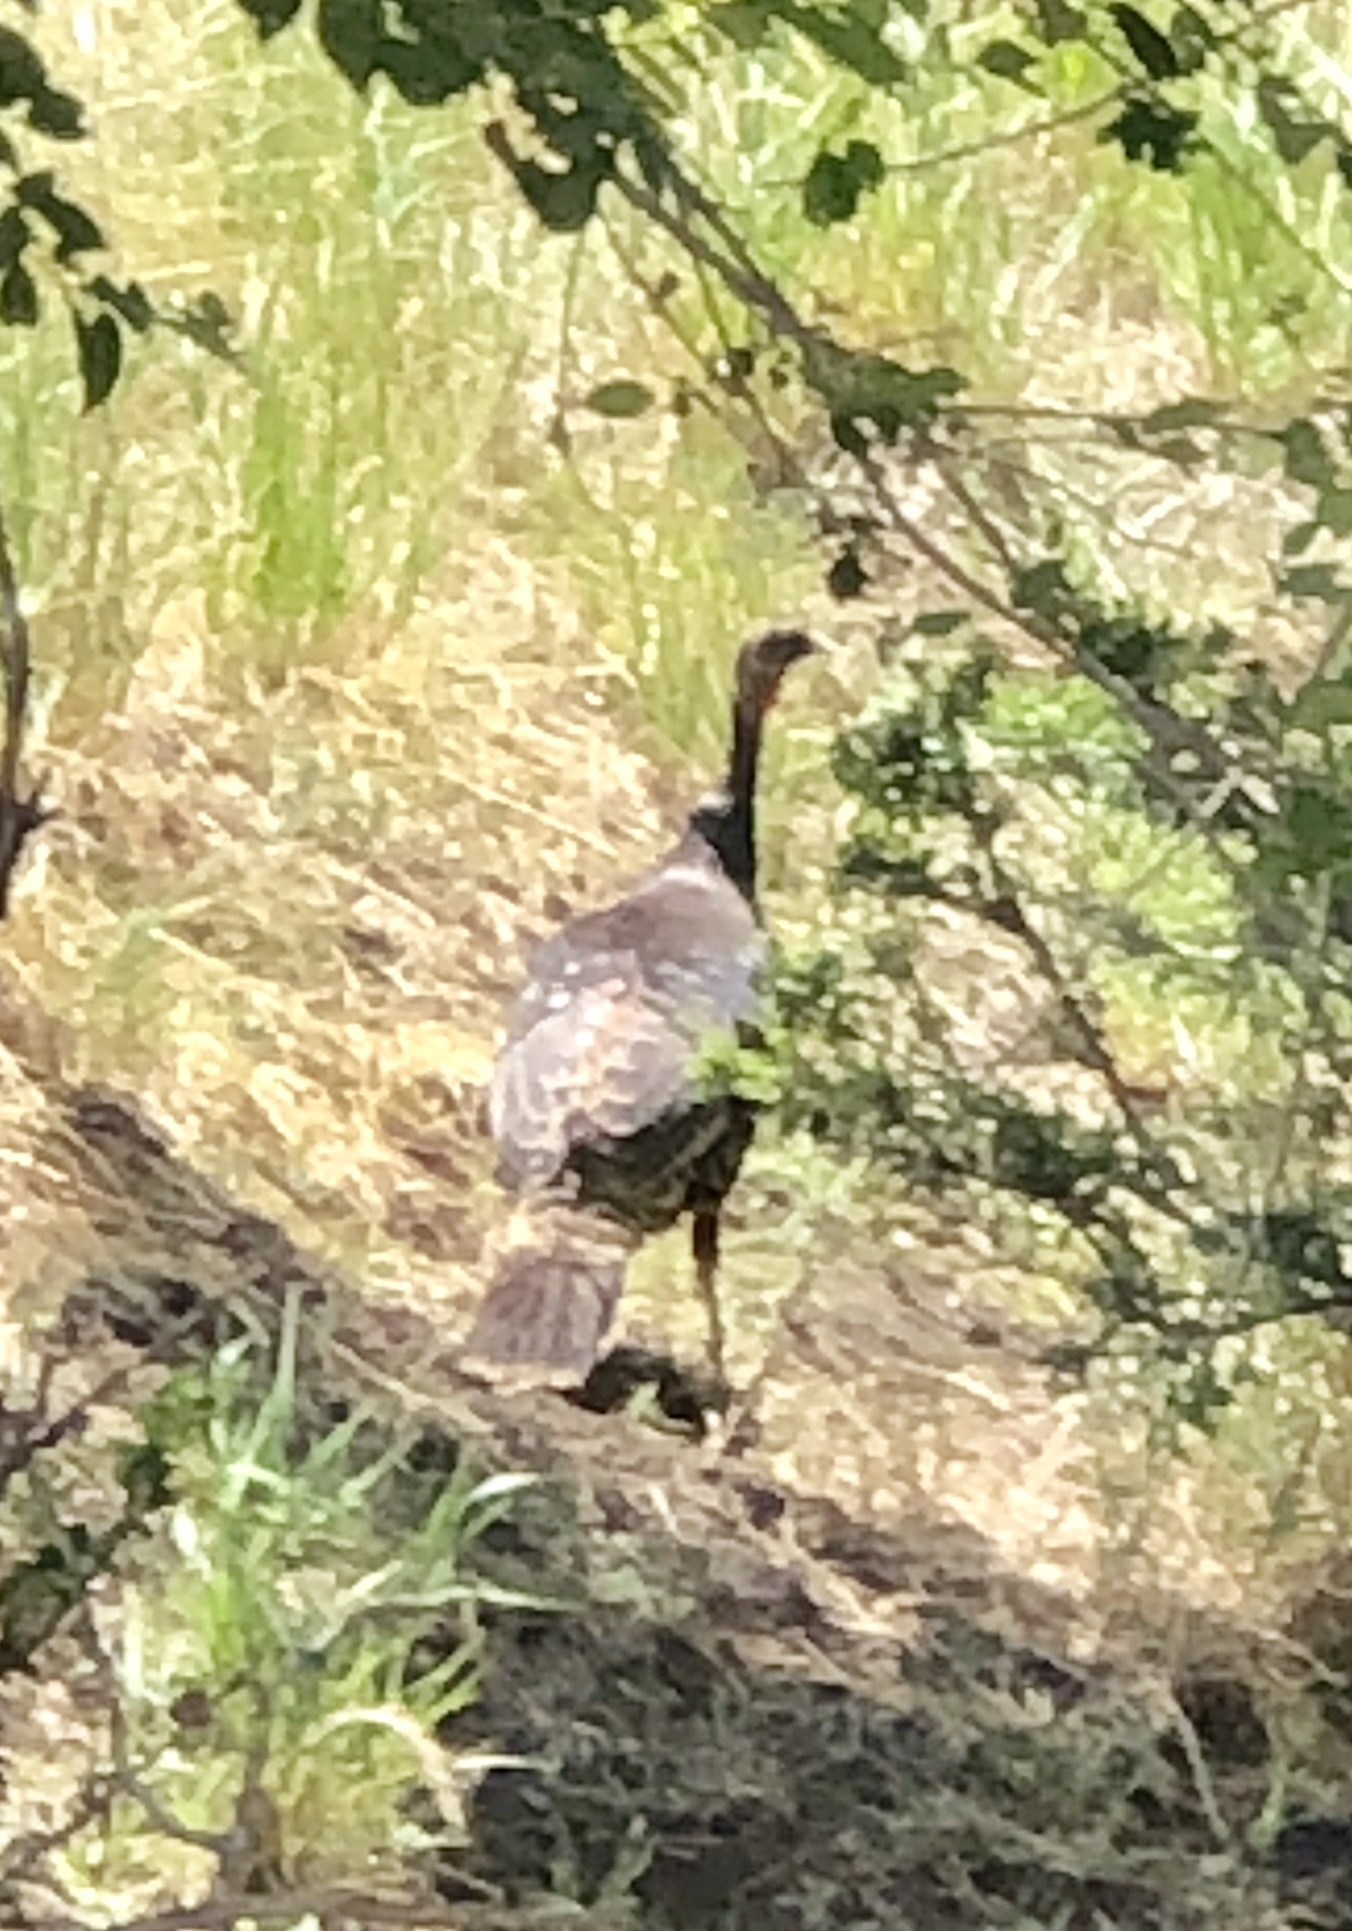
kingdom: Animalia
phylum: Chordata
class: Aves
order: Galliformes
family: Phasianidae
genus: Meleagris
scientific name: Meleagris gallopavo
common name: Wild turkey
